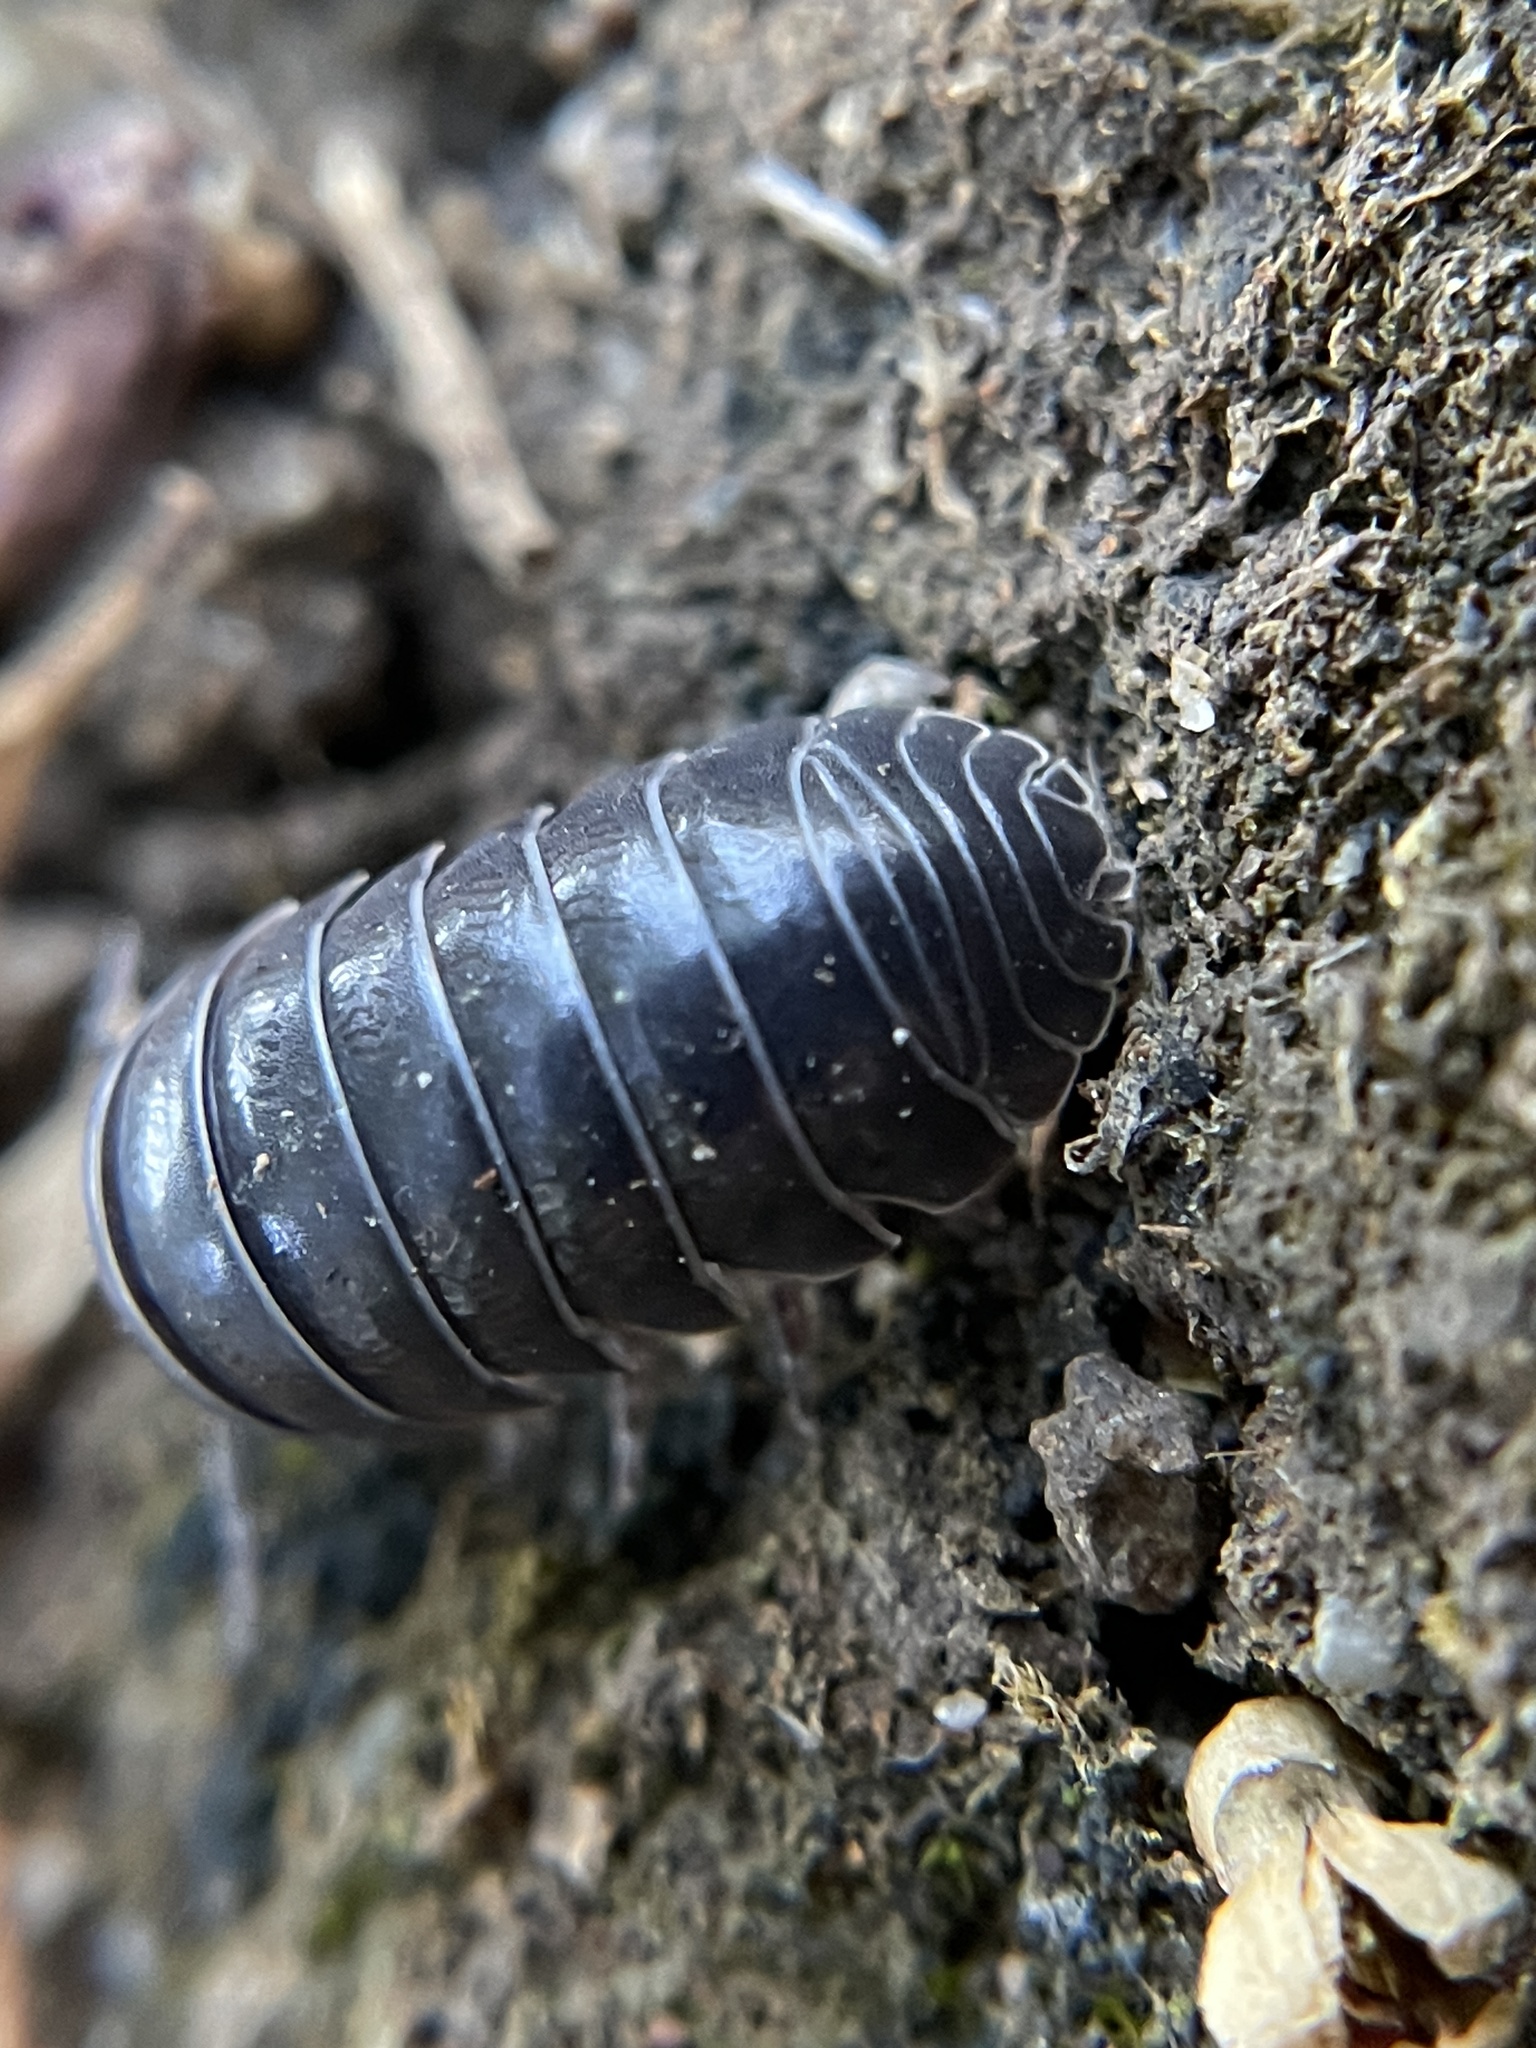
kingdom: Animalia
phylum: Arthropoda
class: Malacostraca
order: Isopoda
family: Armadillidiidae
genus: Armadillidium
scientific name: Armadillidium vulgare
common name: Common pill woodlouse
